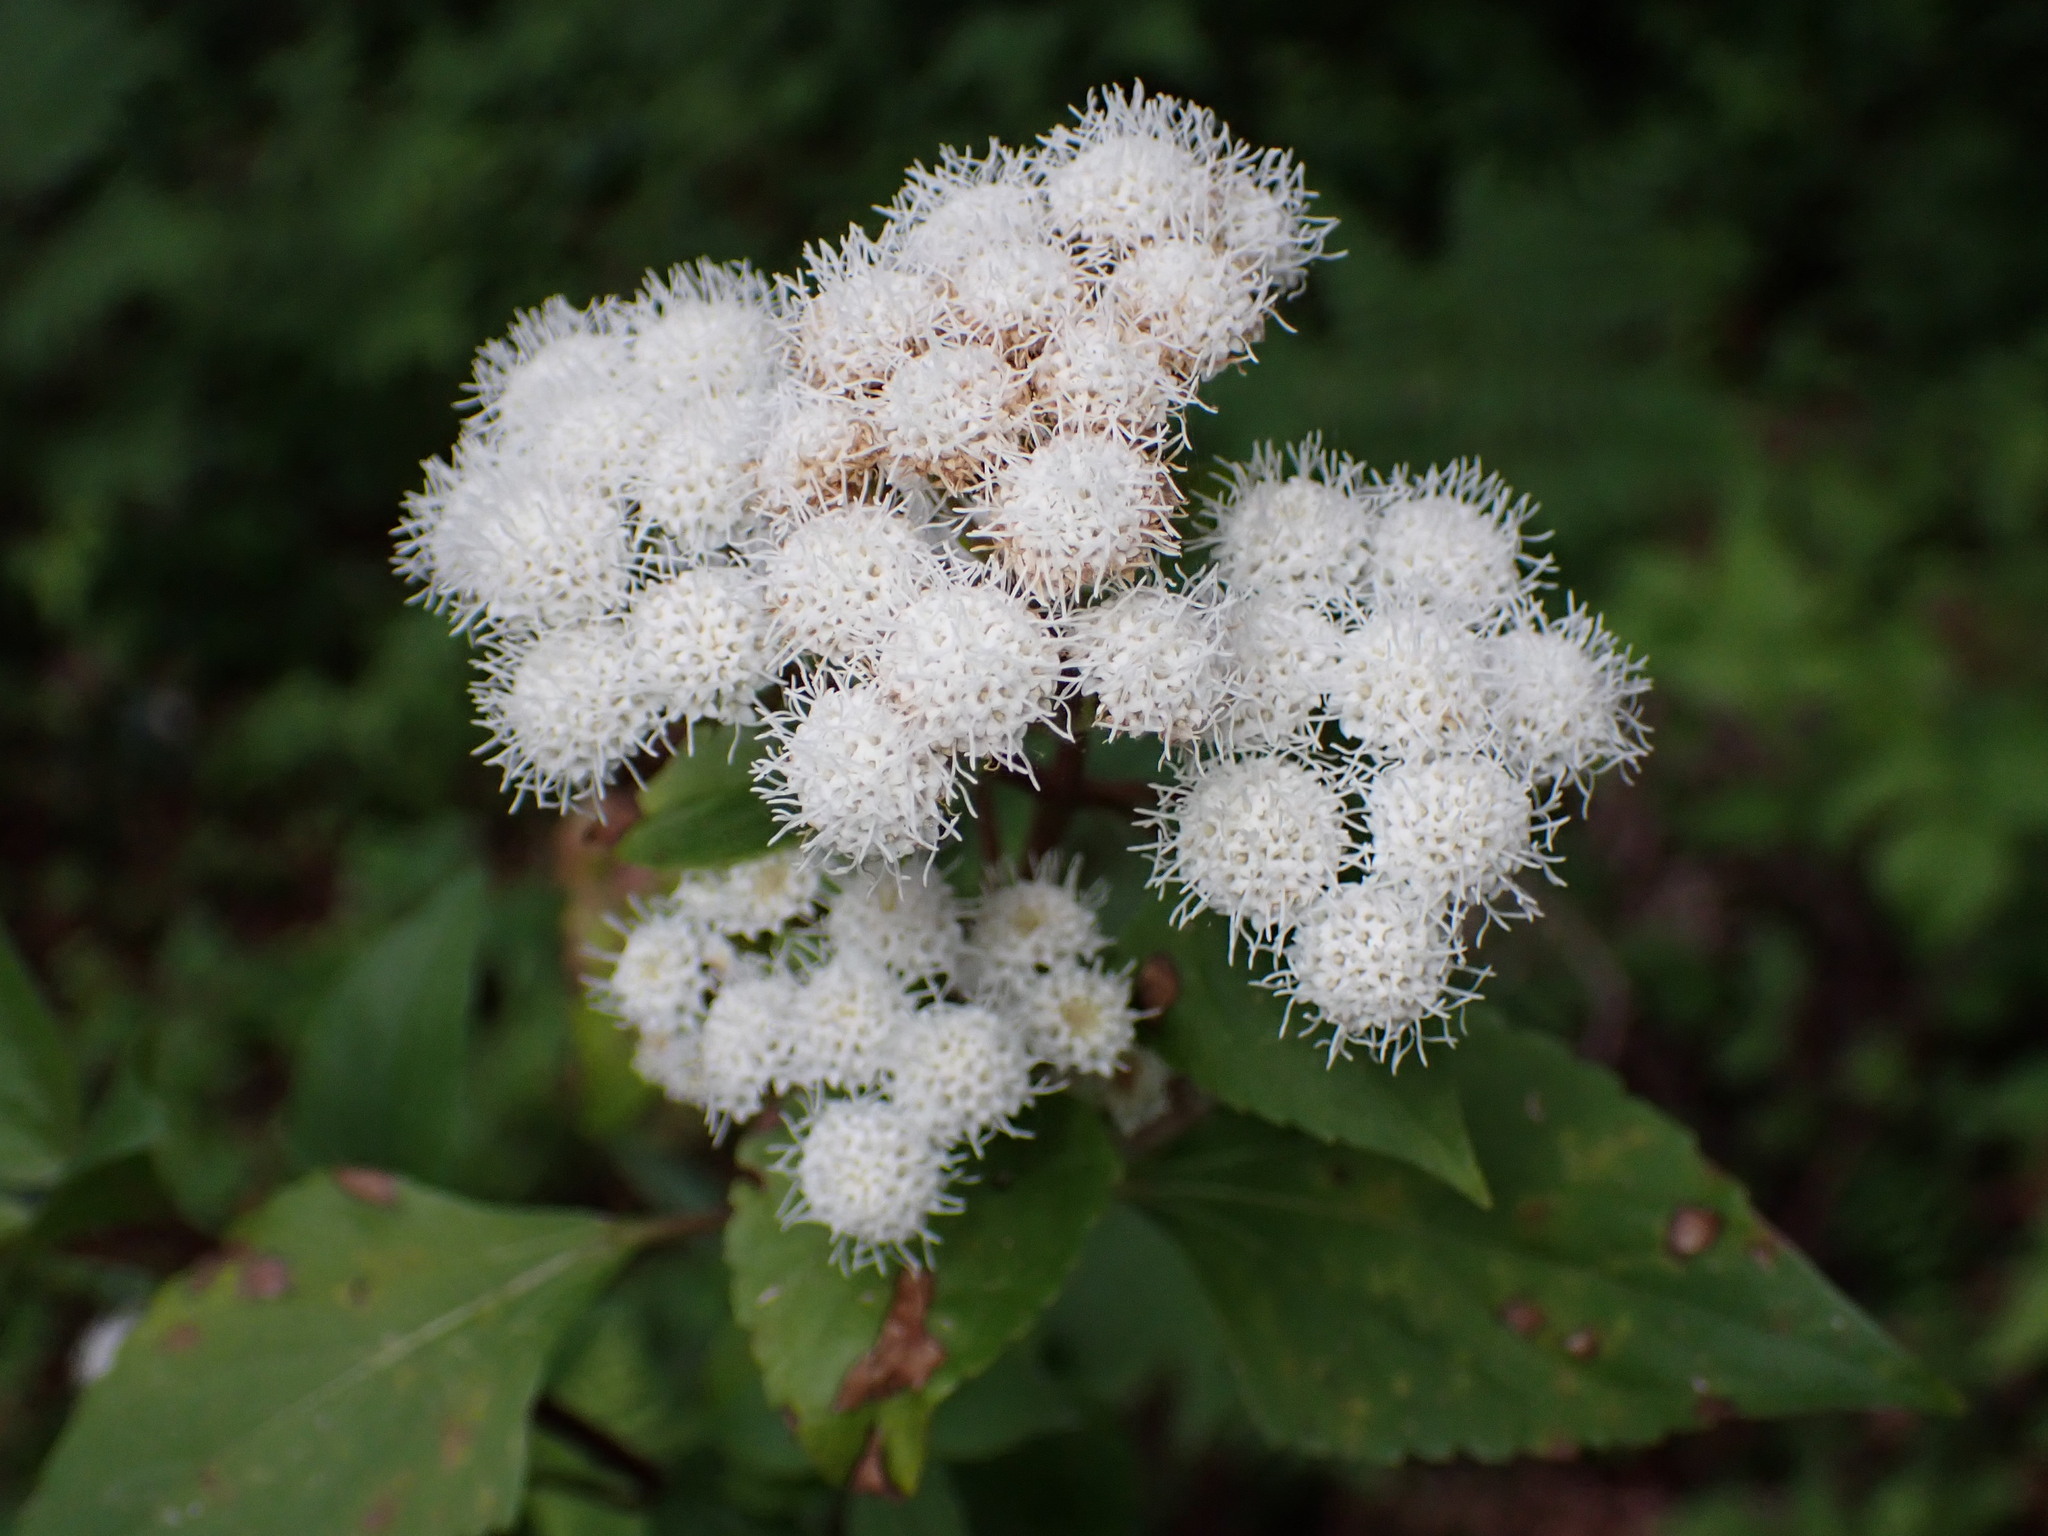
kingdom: Plantae
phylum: Tracheophyta
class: Magnoliopsida
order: Asterales
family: Asteraceae
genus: Ageratina
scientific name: Ageratina adenophora
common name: Sticky snakeroot
